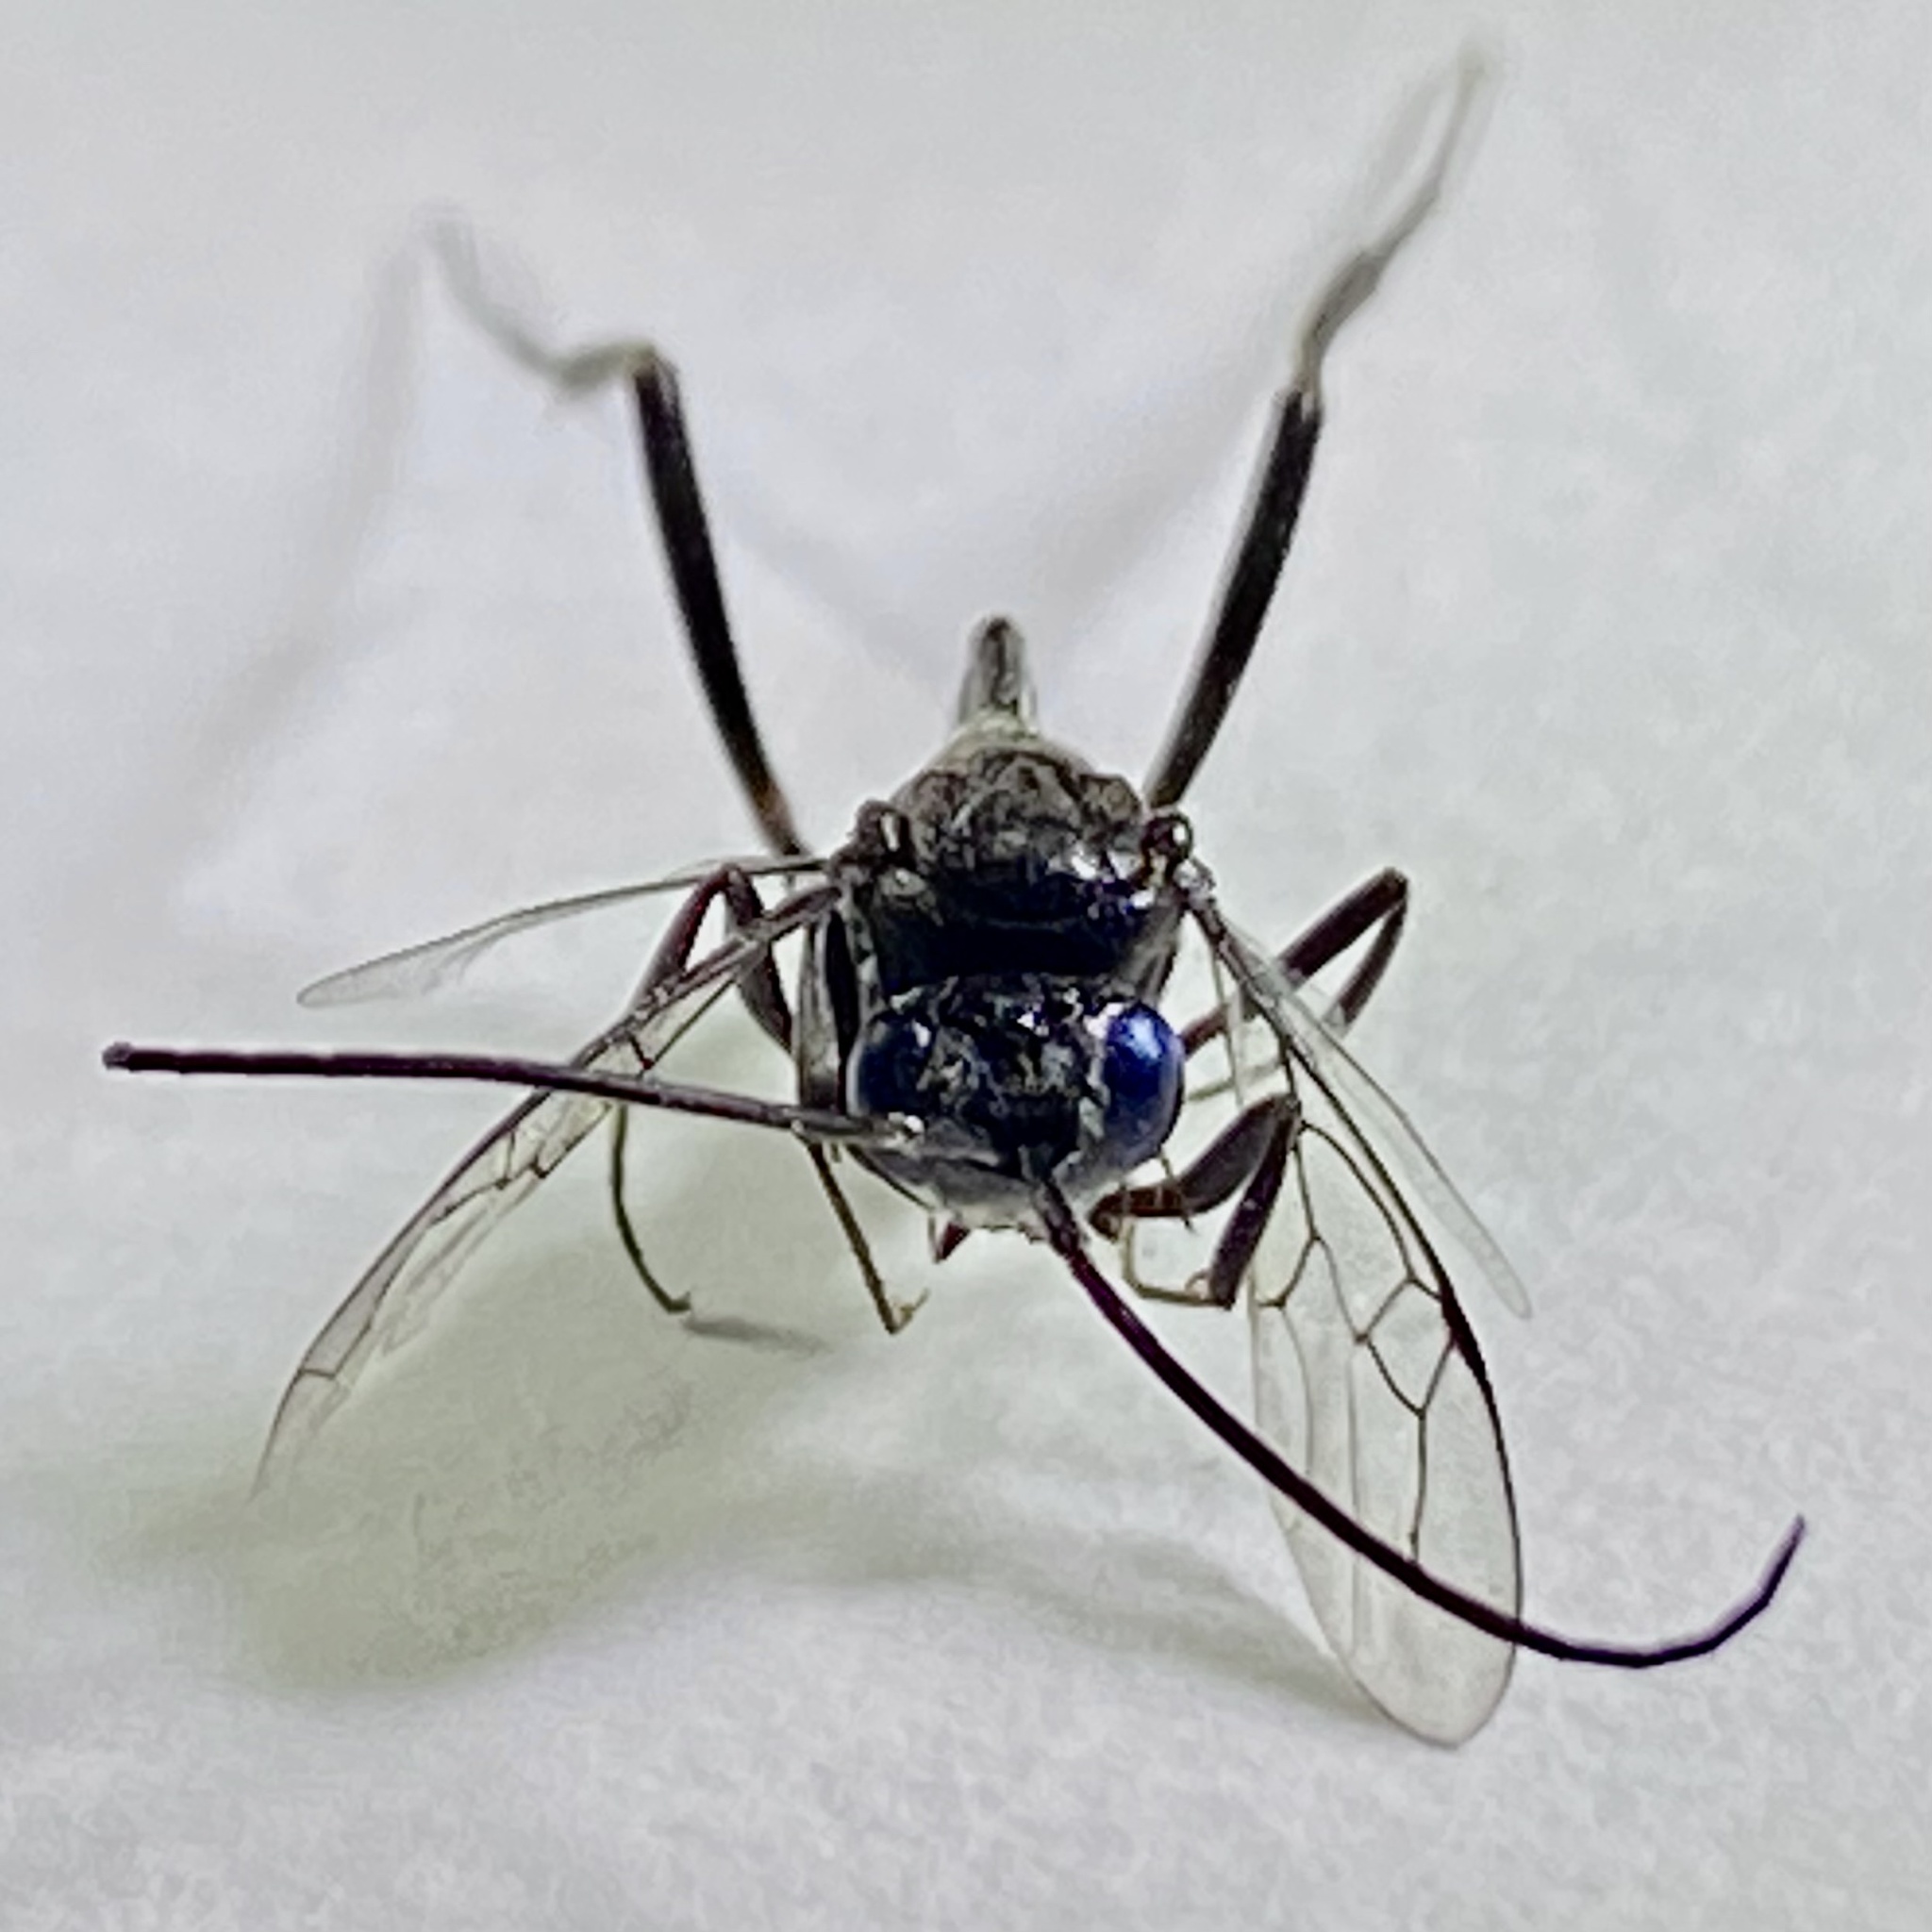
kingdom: Animalia
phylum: Arthropoda
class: Insecta
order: Hymenoptera
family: Evaniidae
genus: Evania
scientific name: Evania appendigaster
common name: Ensign wasp
